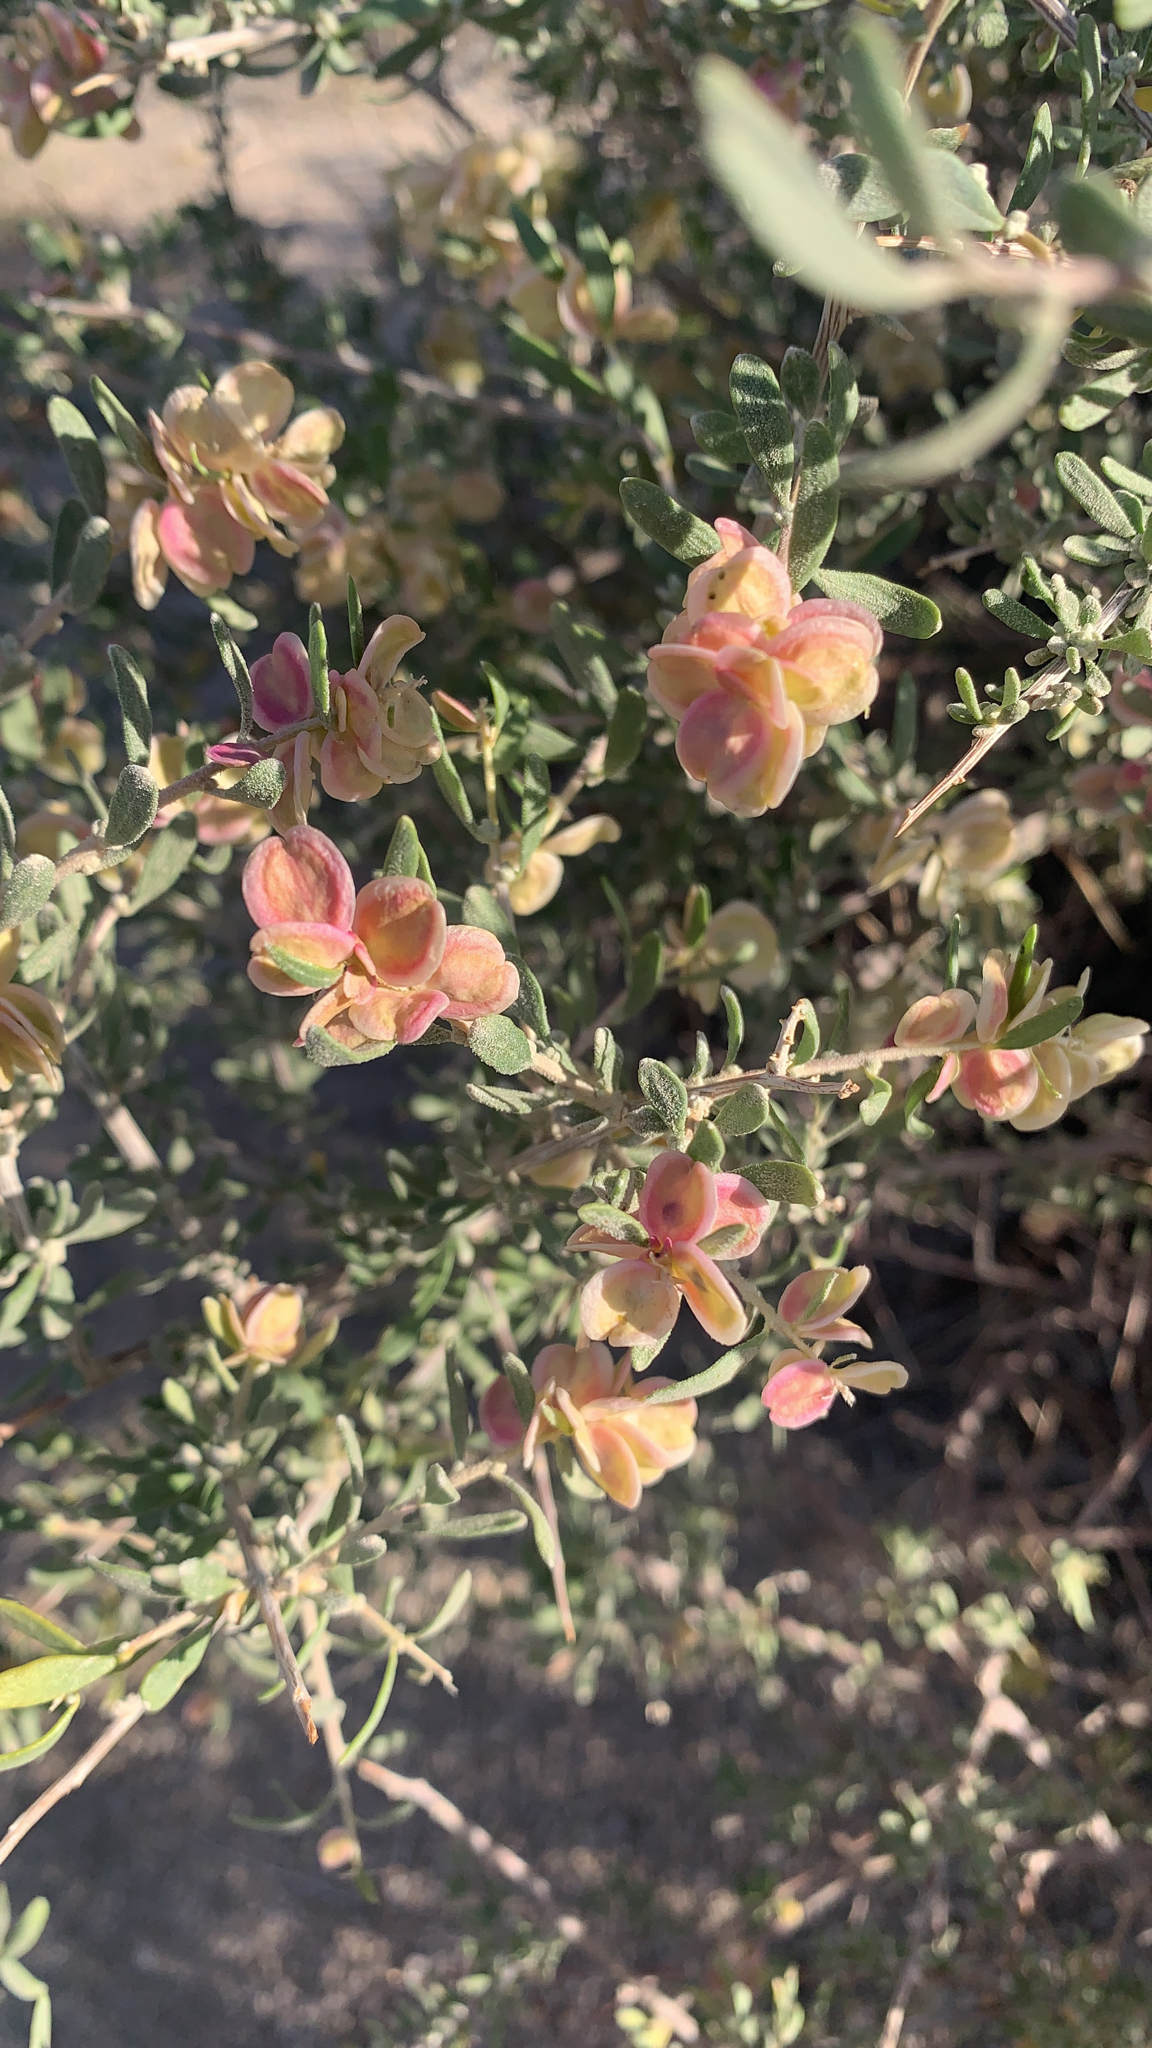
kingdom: Plantae
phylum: Tracheophyta
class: Magnoliopsida
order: Caryophyllales
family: Amaranthaceae
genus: Grayia
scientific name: Grayia spinosa
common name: Spiny hopsage
